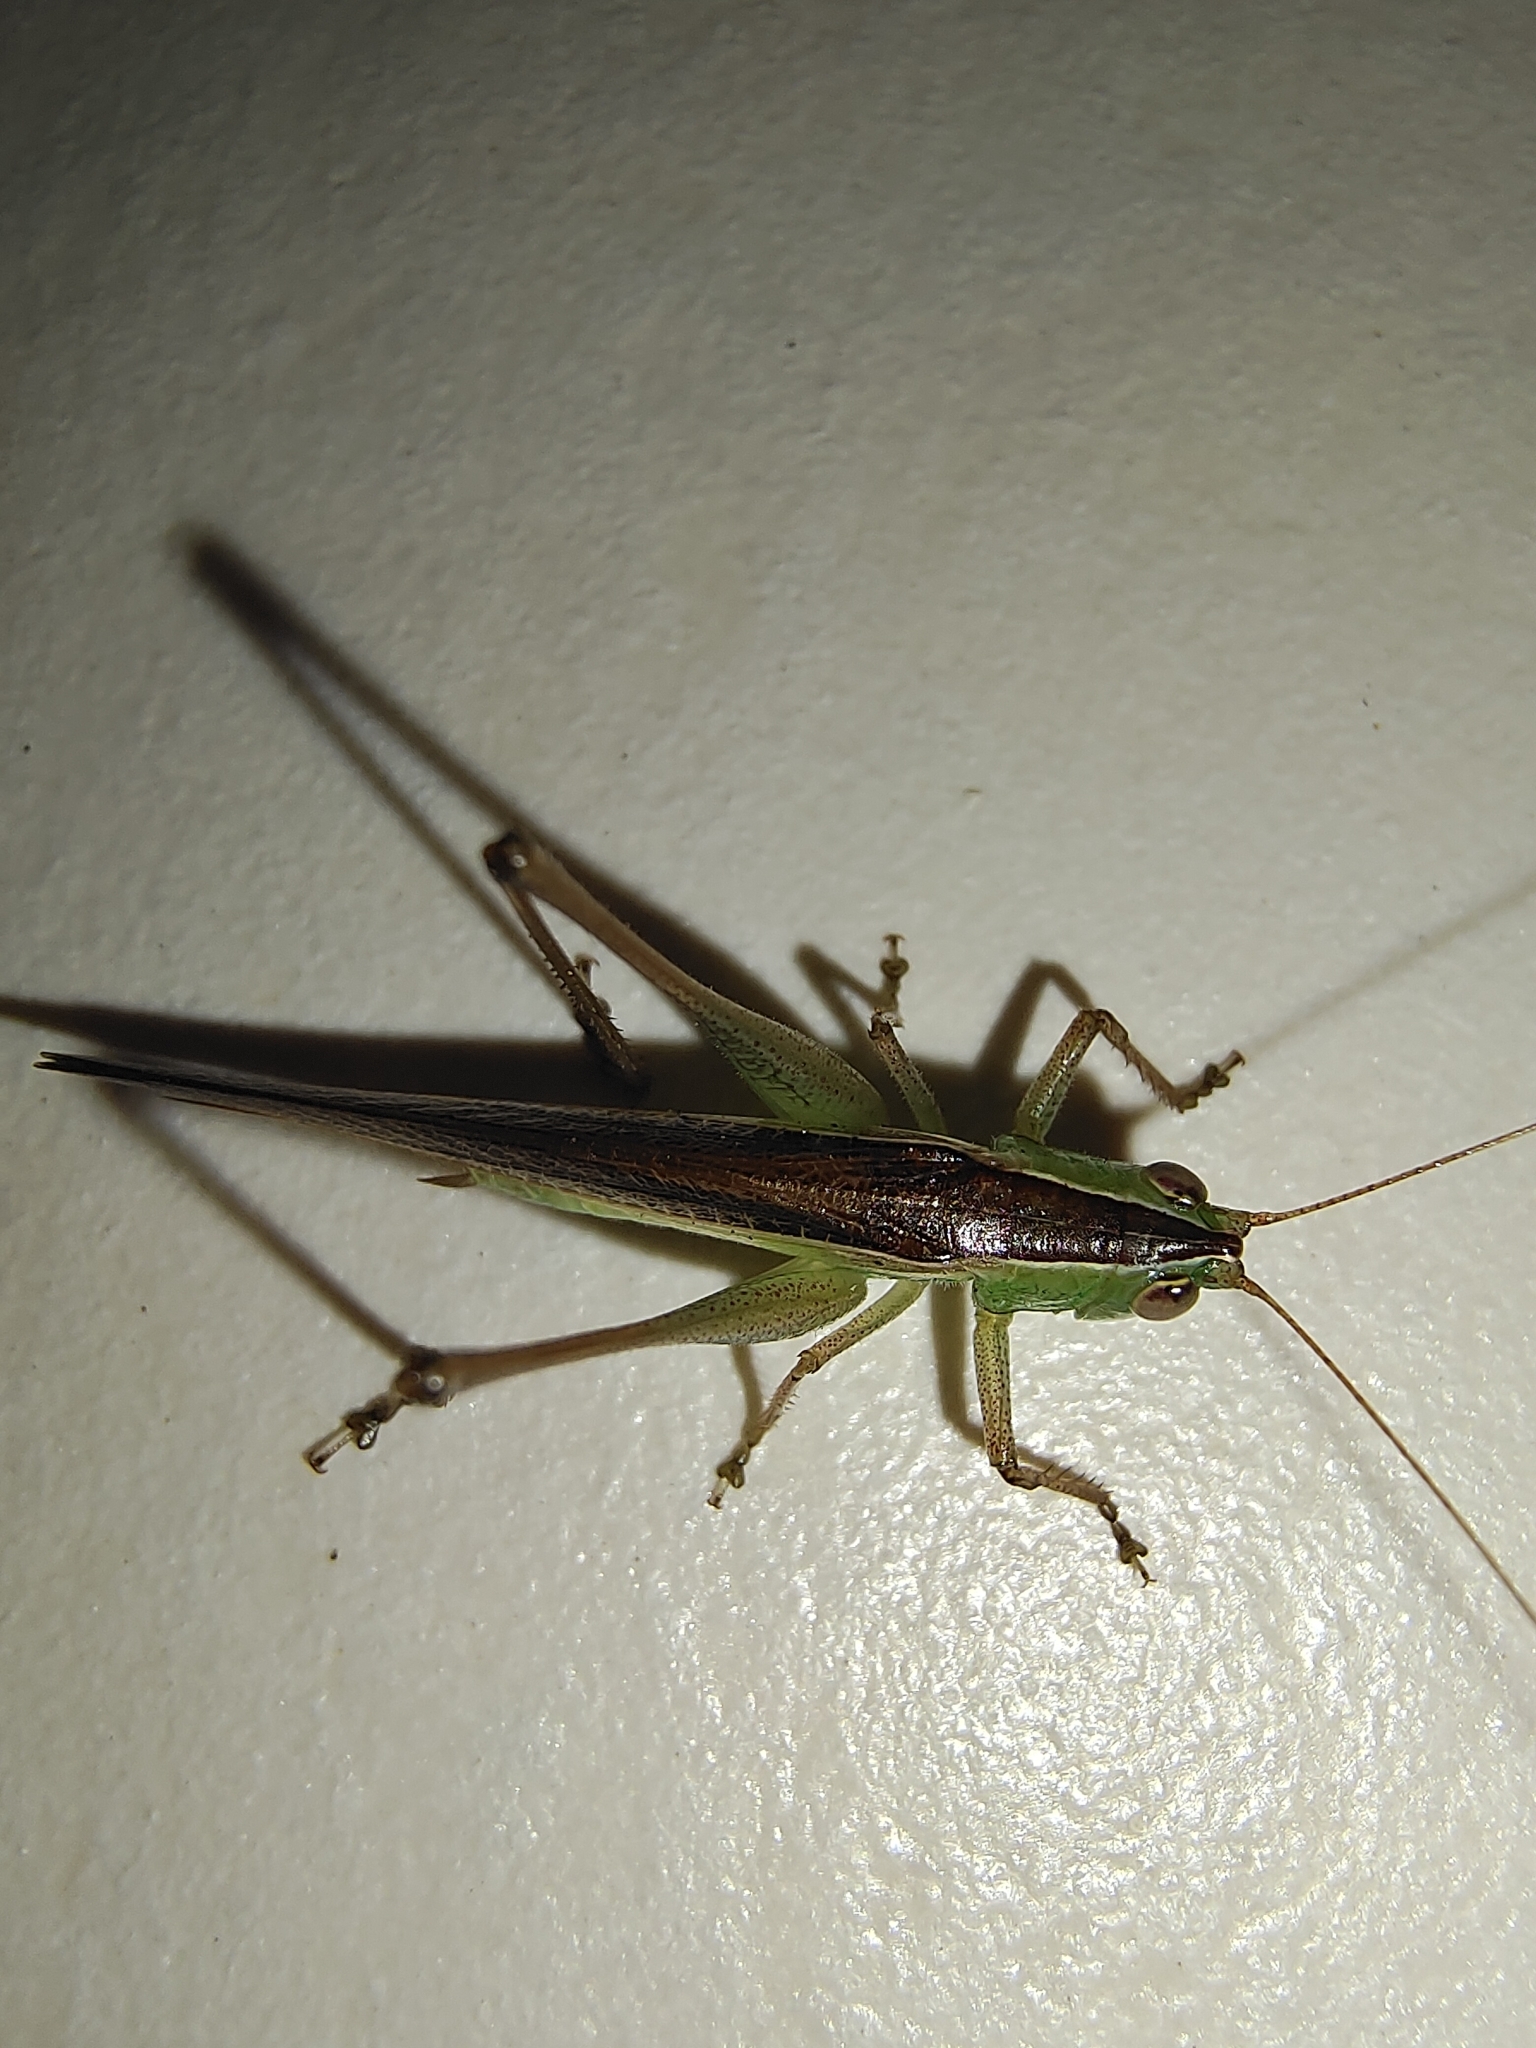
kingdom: Animalia
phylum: Arthropoda
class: Insecta
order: Orthoptera
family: Tettigoniidae
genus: Conocephalus
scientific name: Conocephalus maculatus
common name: Spotted meadow katydid
